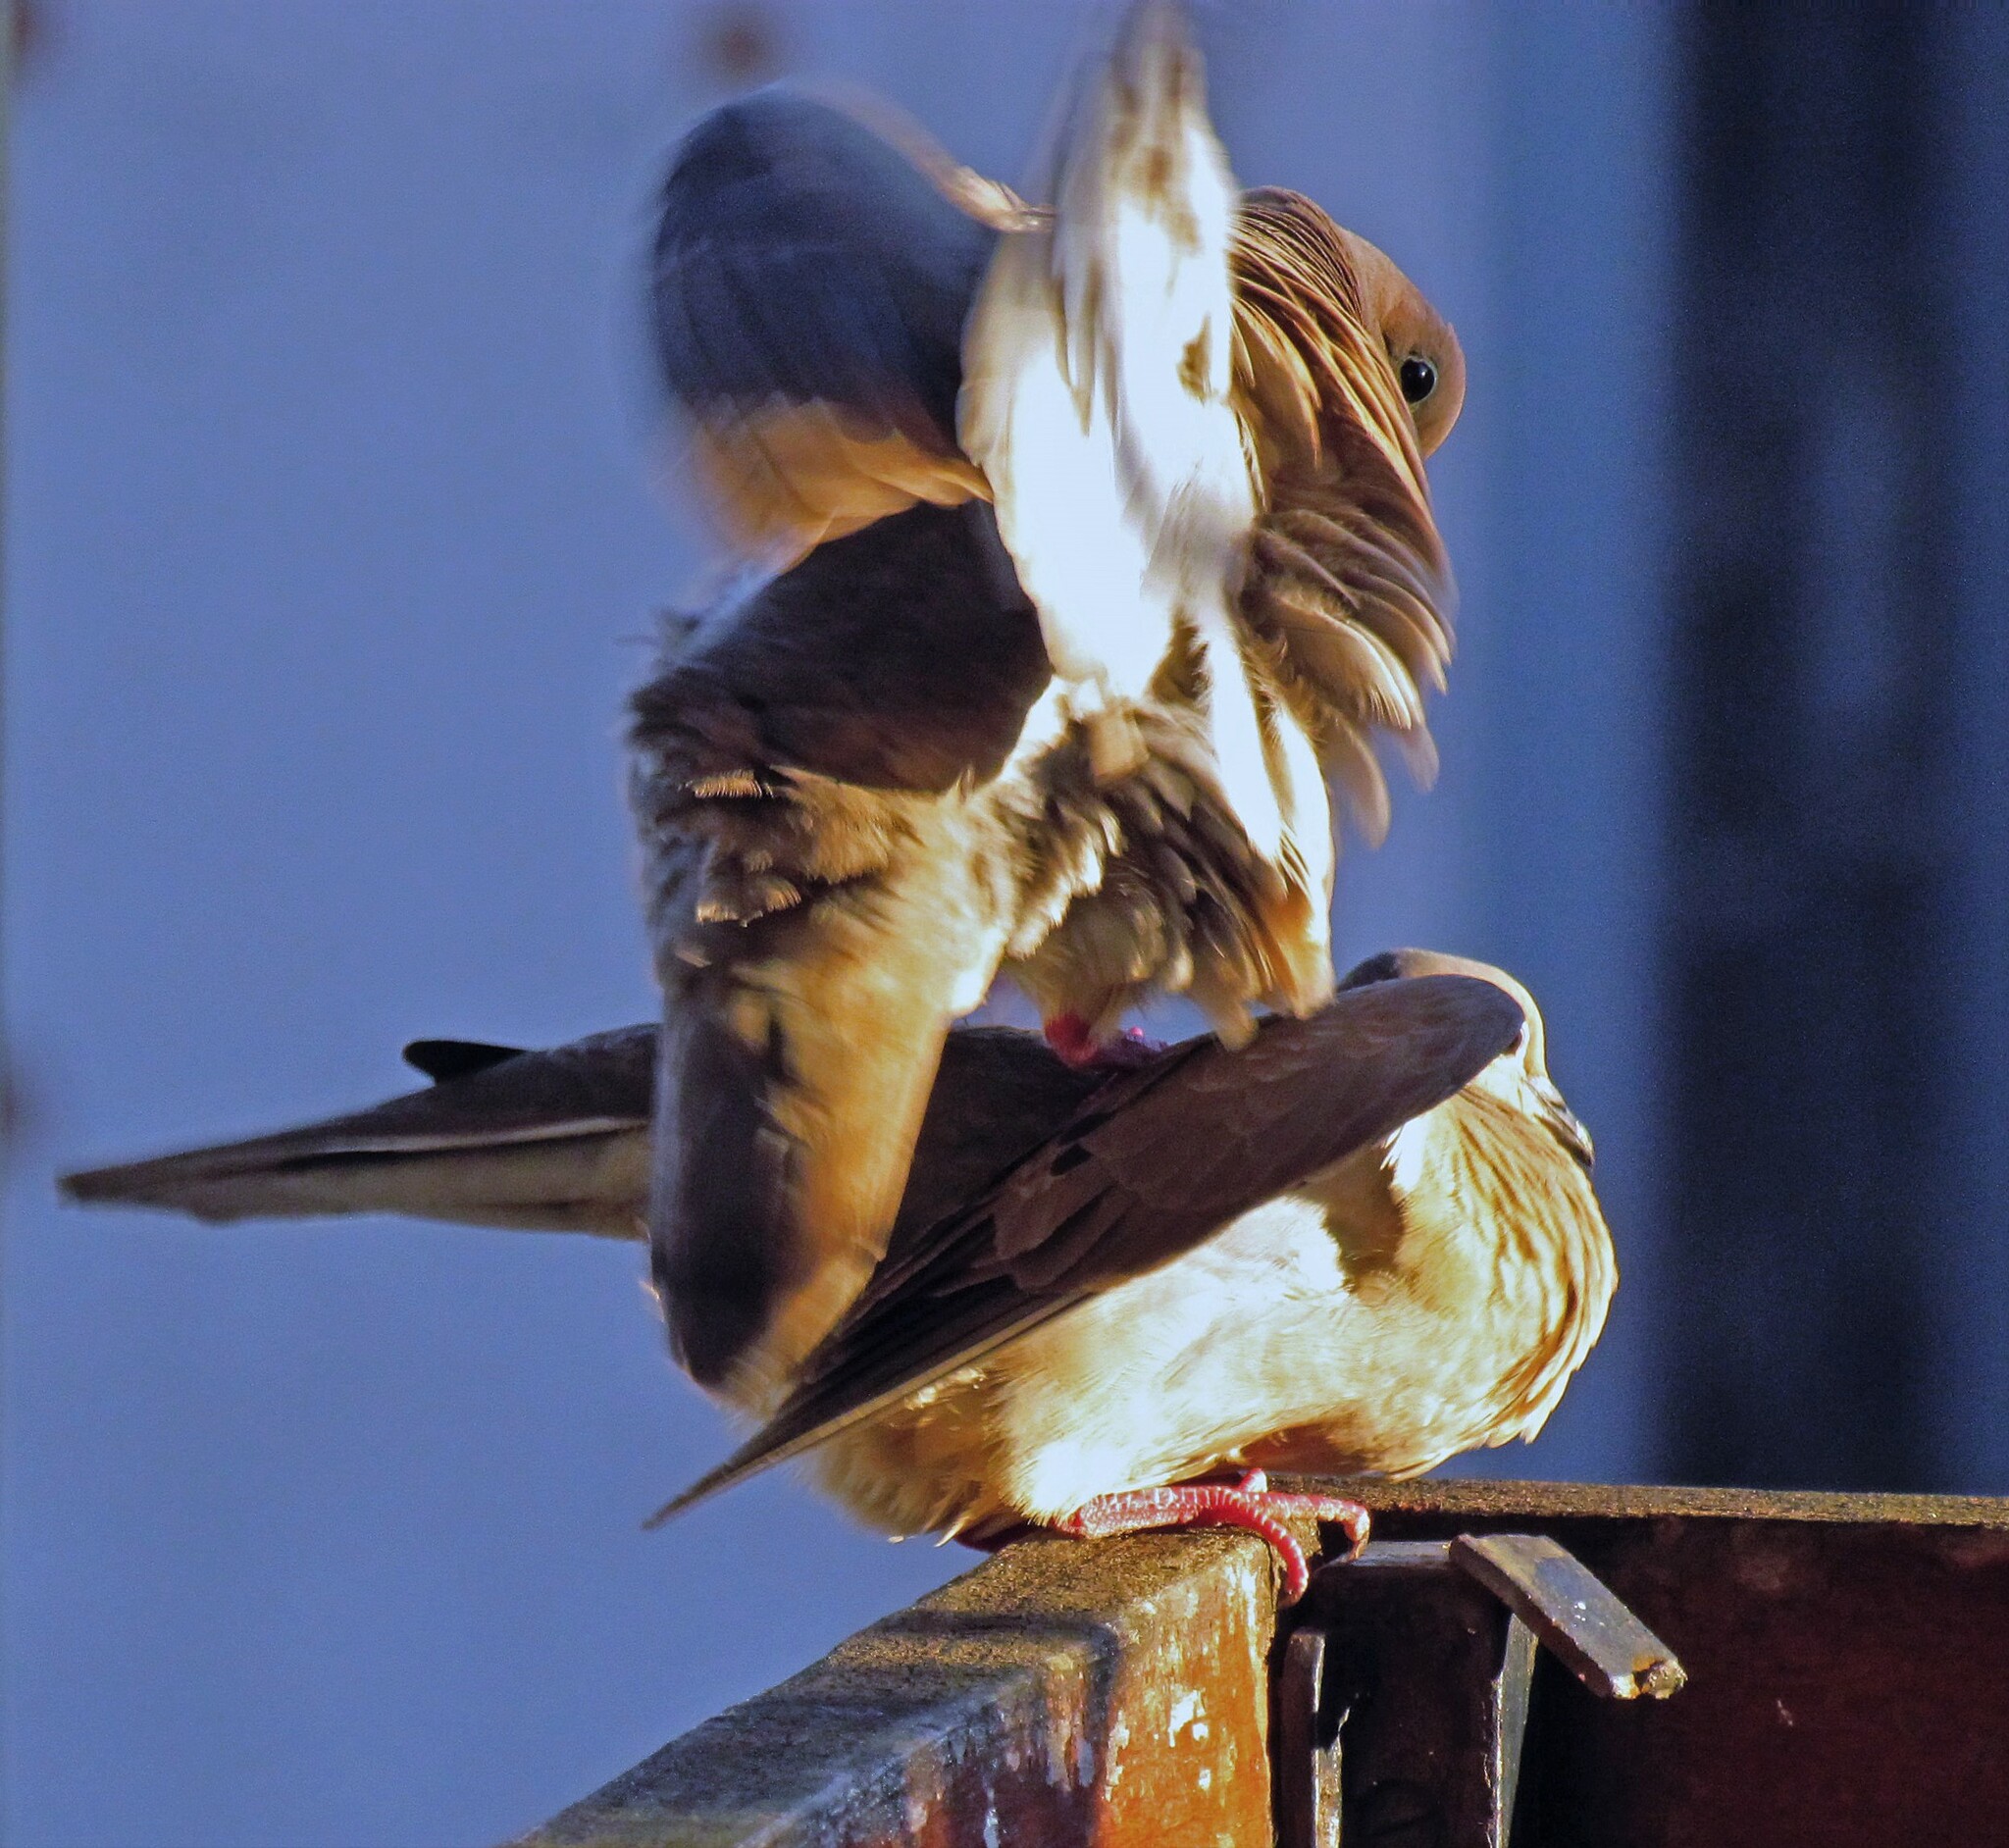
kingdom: Animalia
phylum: Chordata
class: Aves
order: Columbiformes
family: Columbidae
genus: Zenaida
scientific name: Zenaida auriculata
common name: Eared dove
